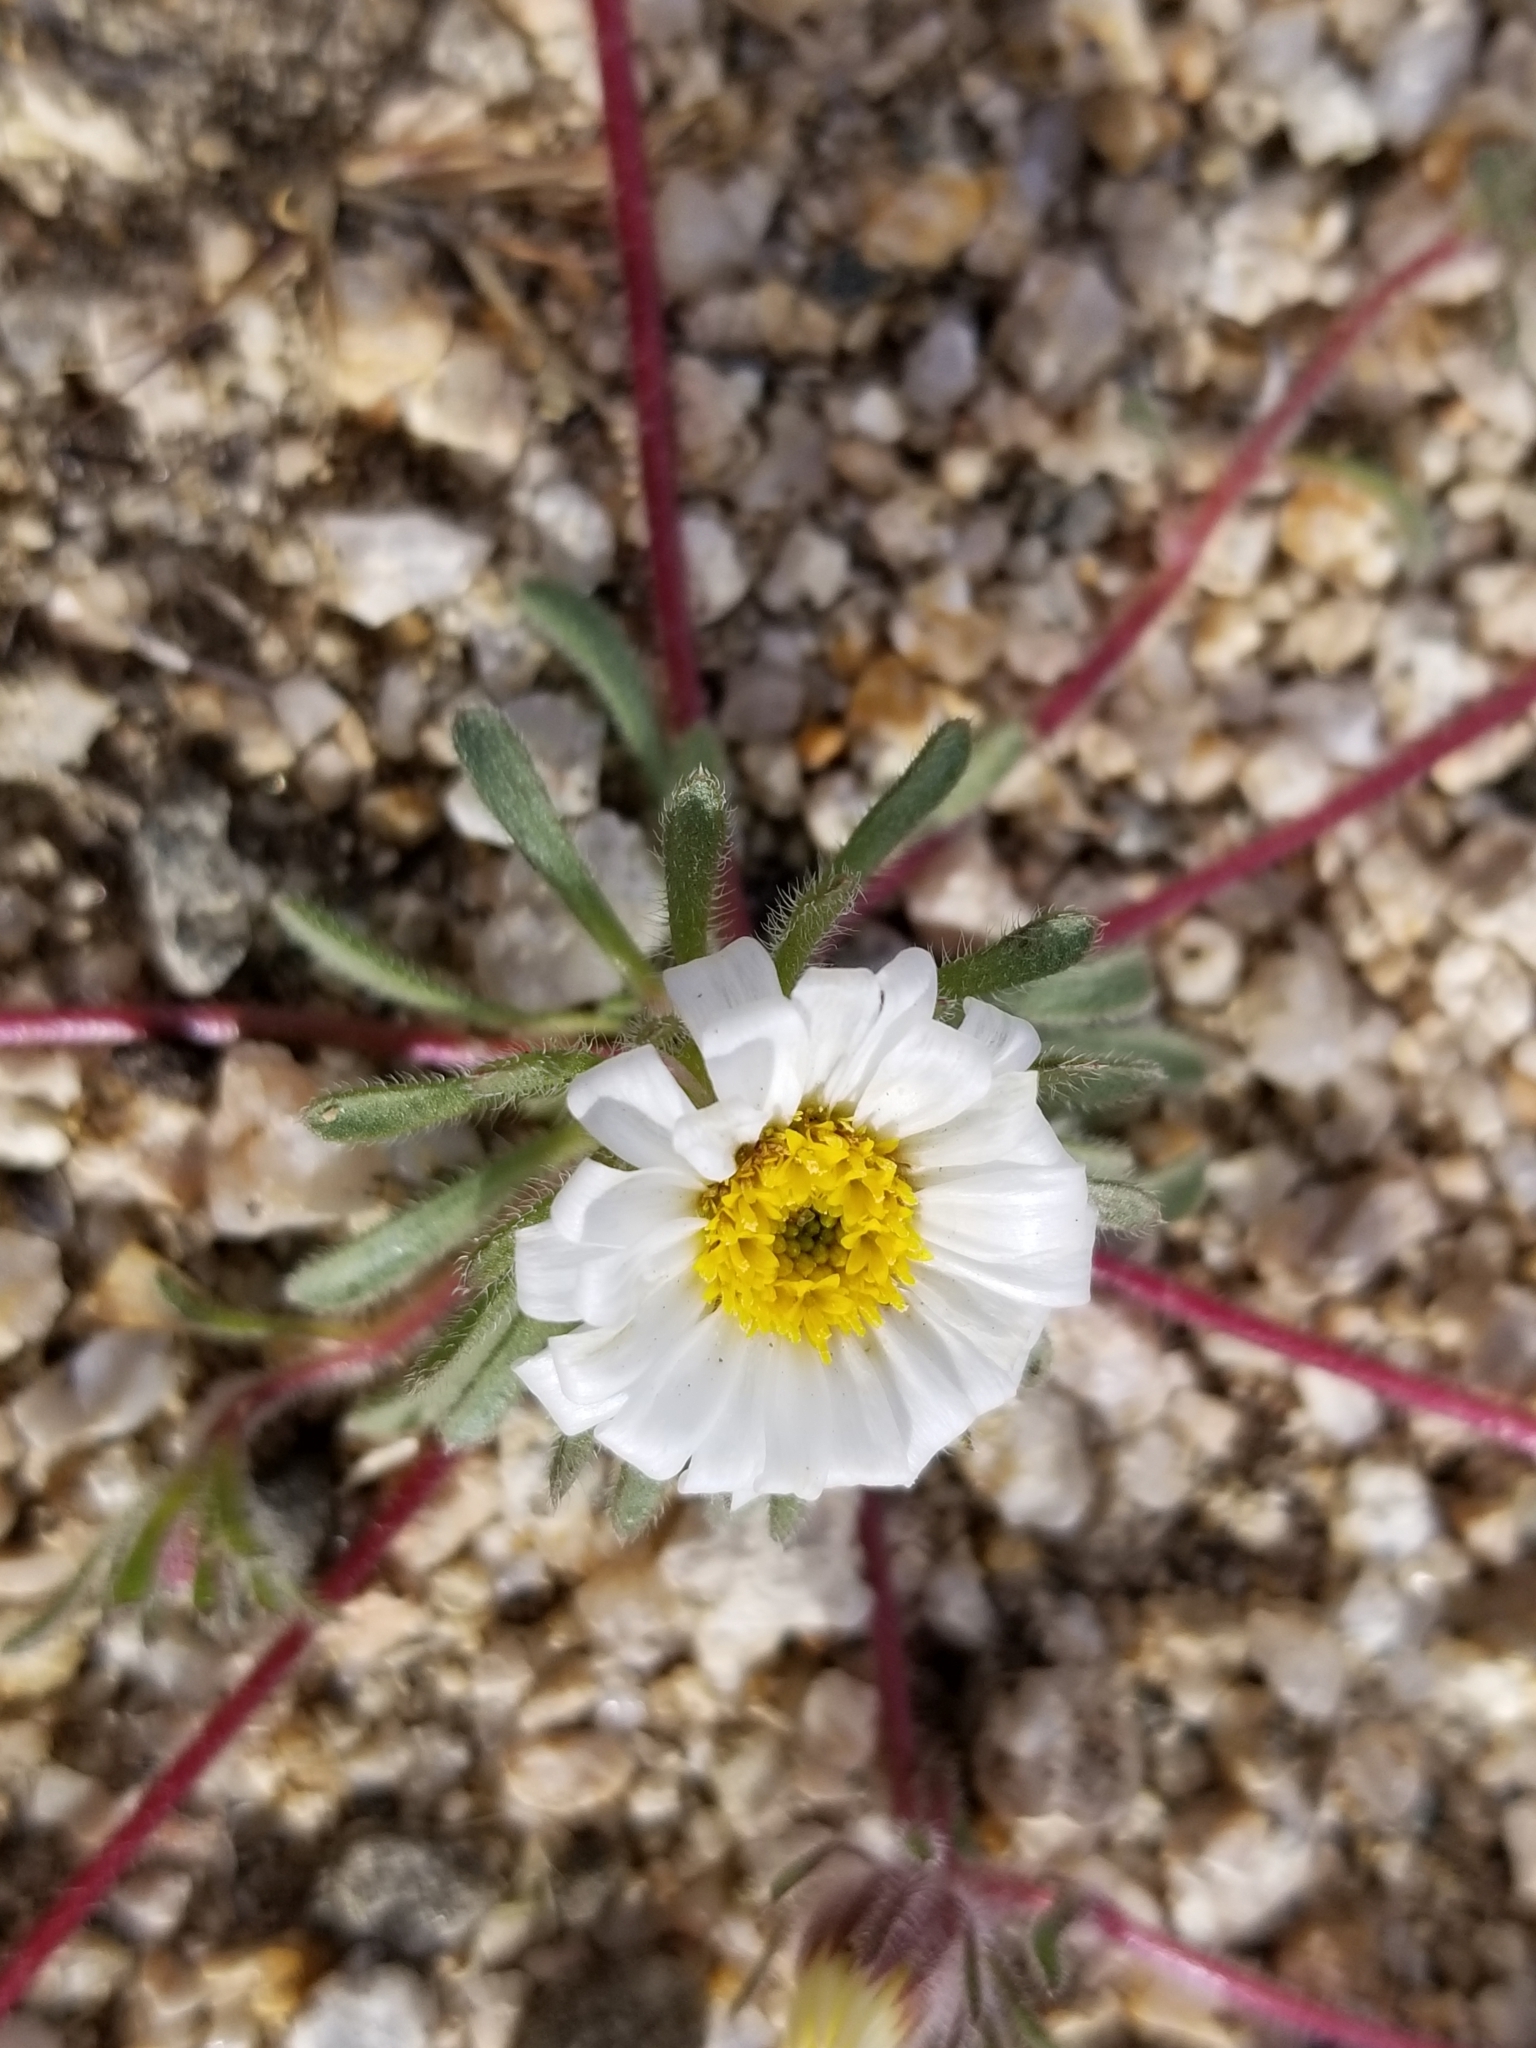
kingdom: Plantae
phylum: Tracheophyta
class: Magnoliopsida
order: Asterales
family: Asteraceae
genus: Monoptilon
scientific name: Monoptilon bellioides
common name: Bristly desertstar
